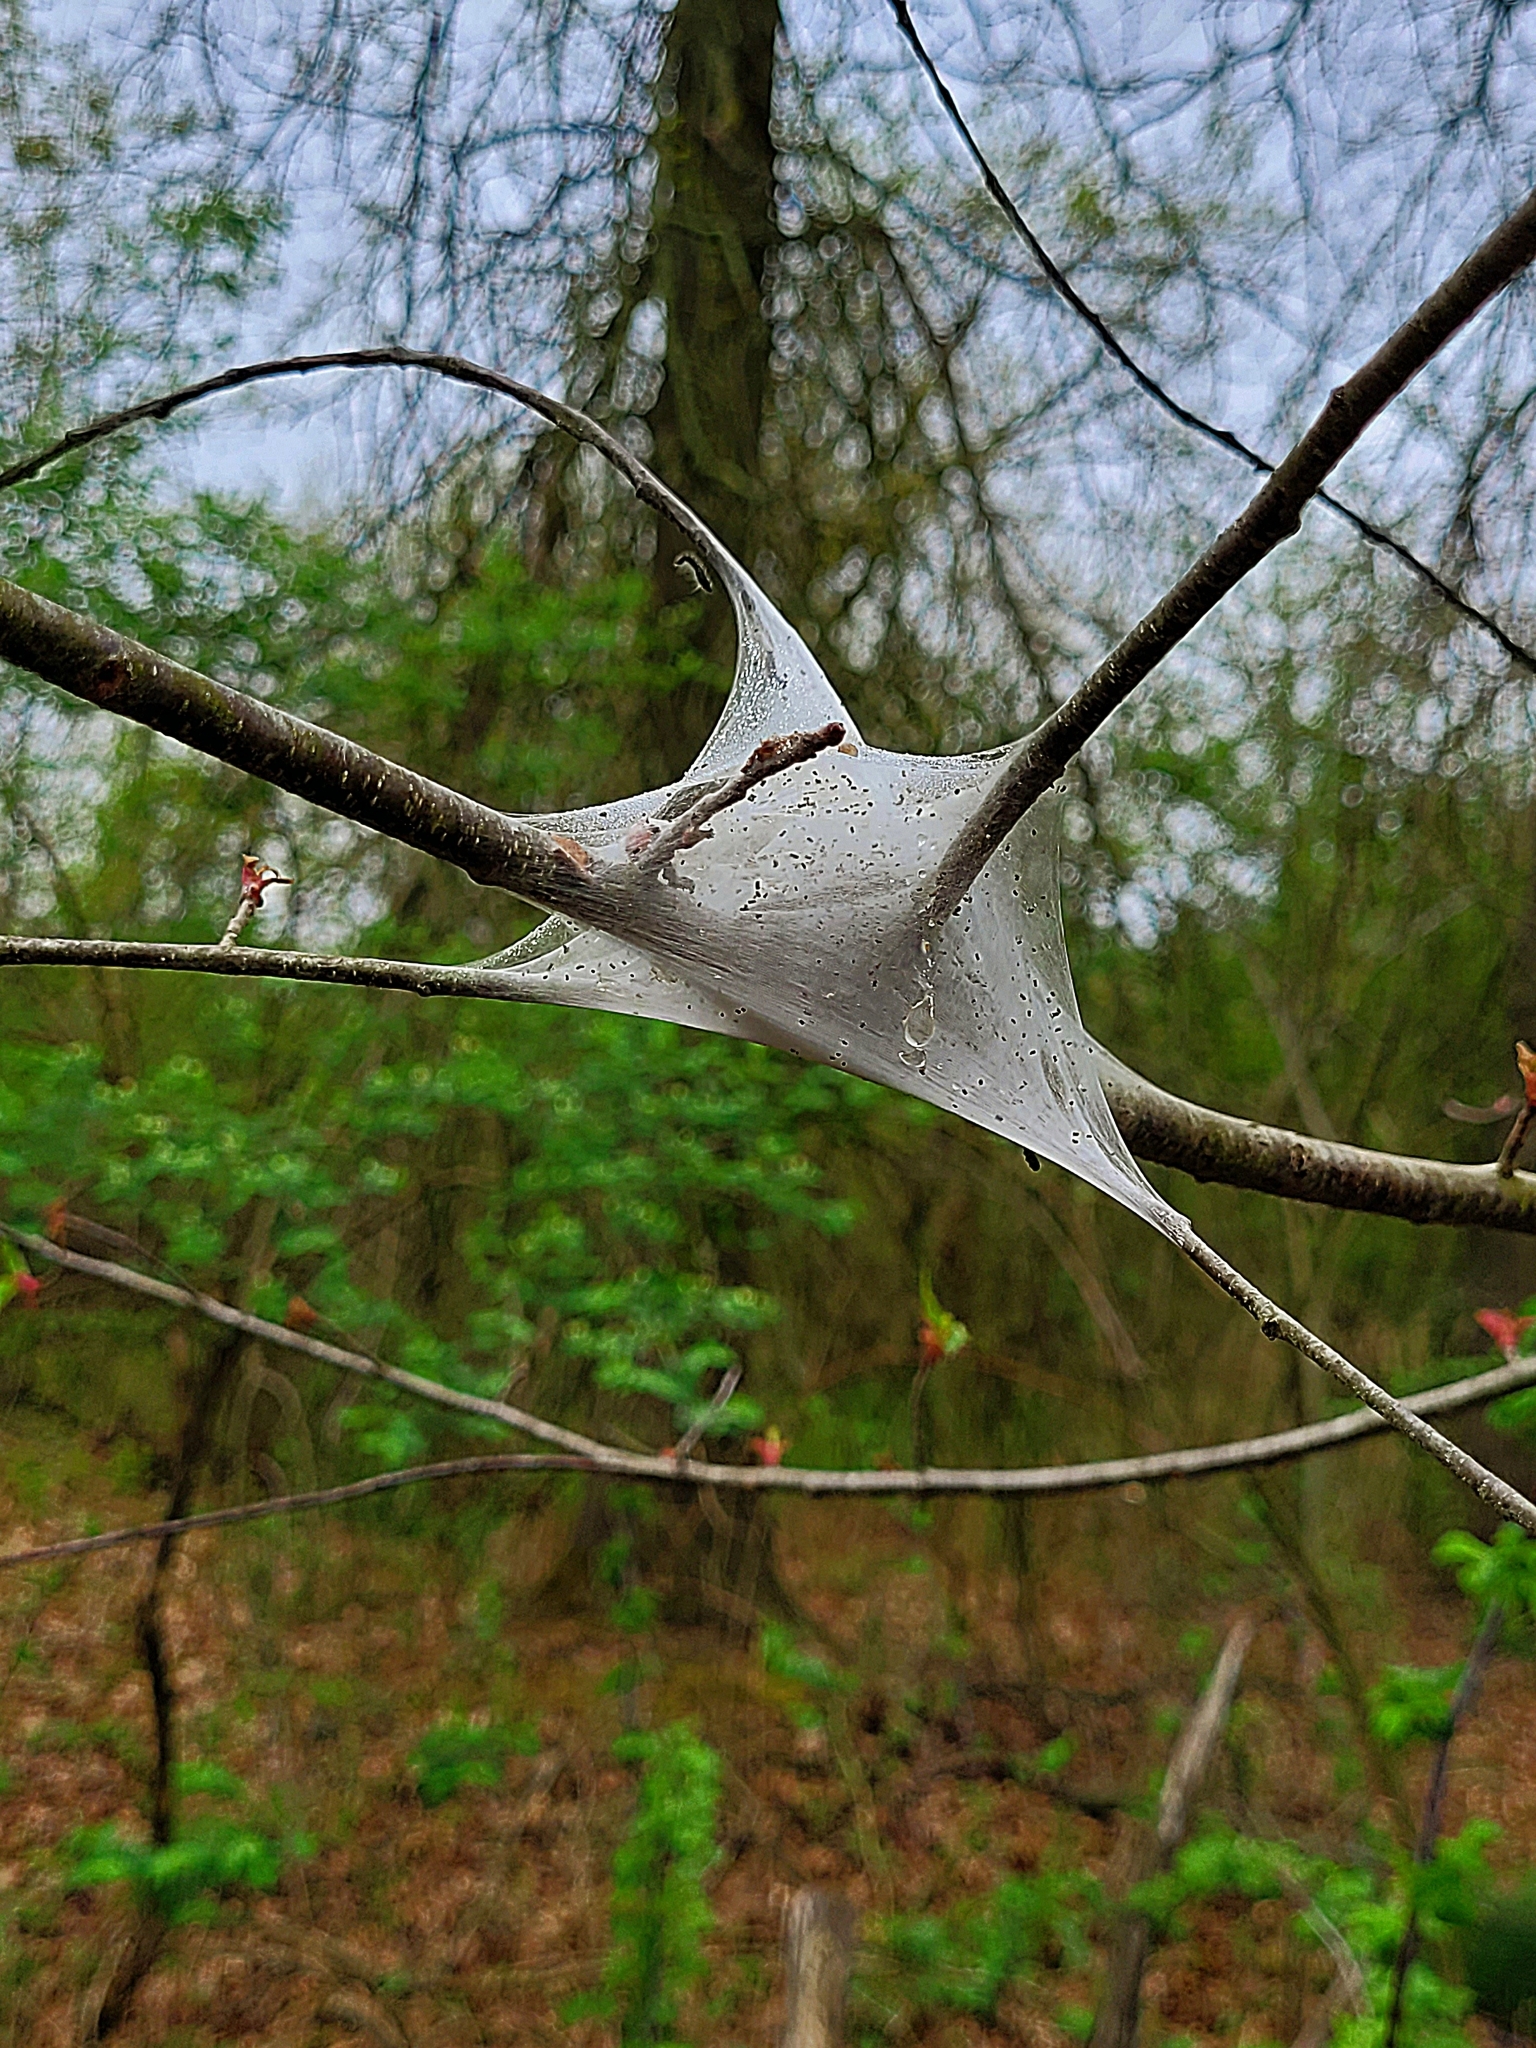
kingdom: Animalia
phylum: Arthropoda
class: Insecta
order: Lepidoptera
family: Lasiocampidae
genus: Malacosoma
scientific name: Malacosoma americana
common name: Eastern tent caterpillar moth
